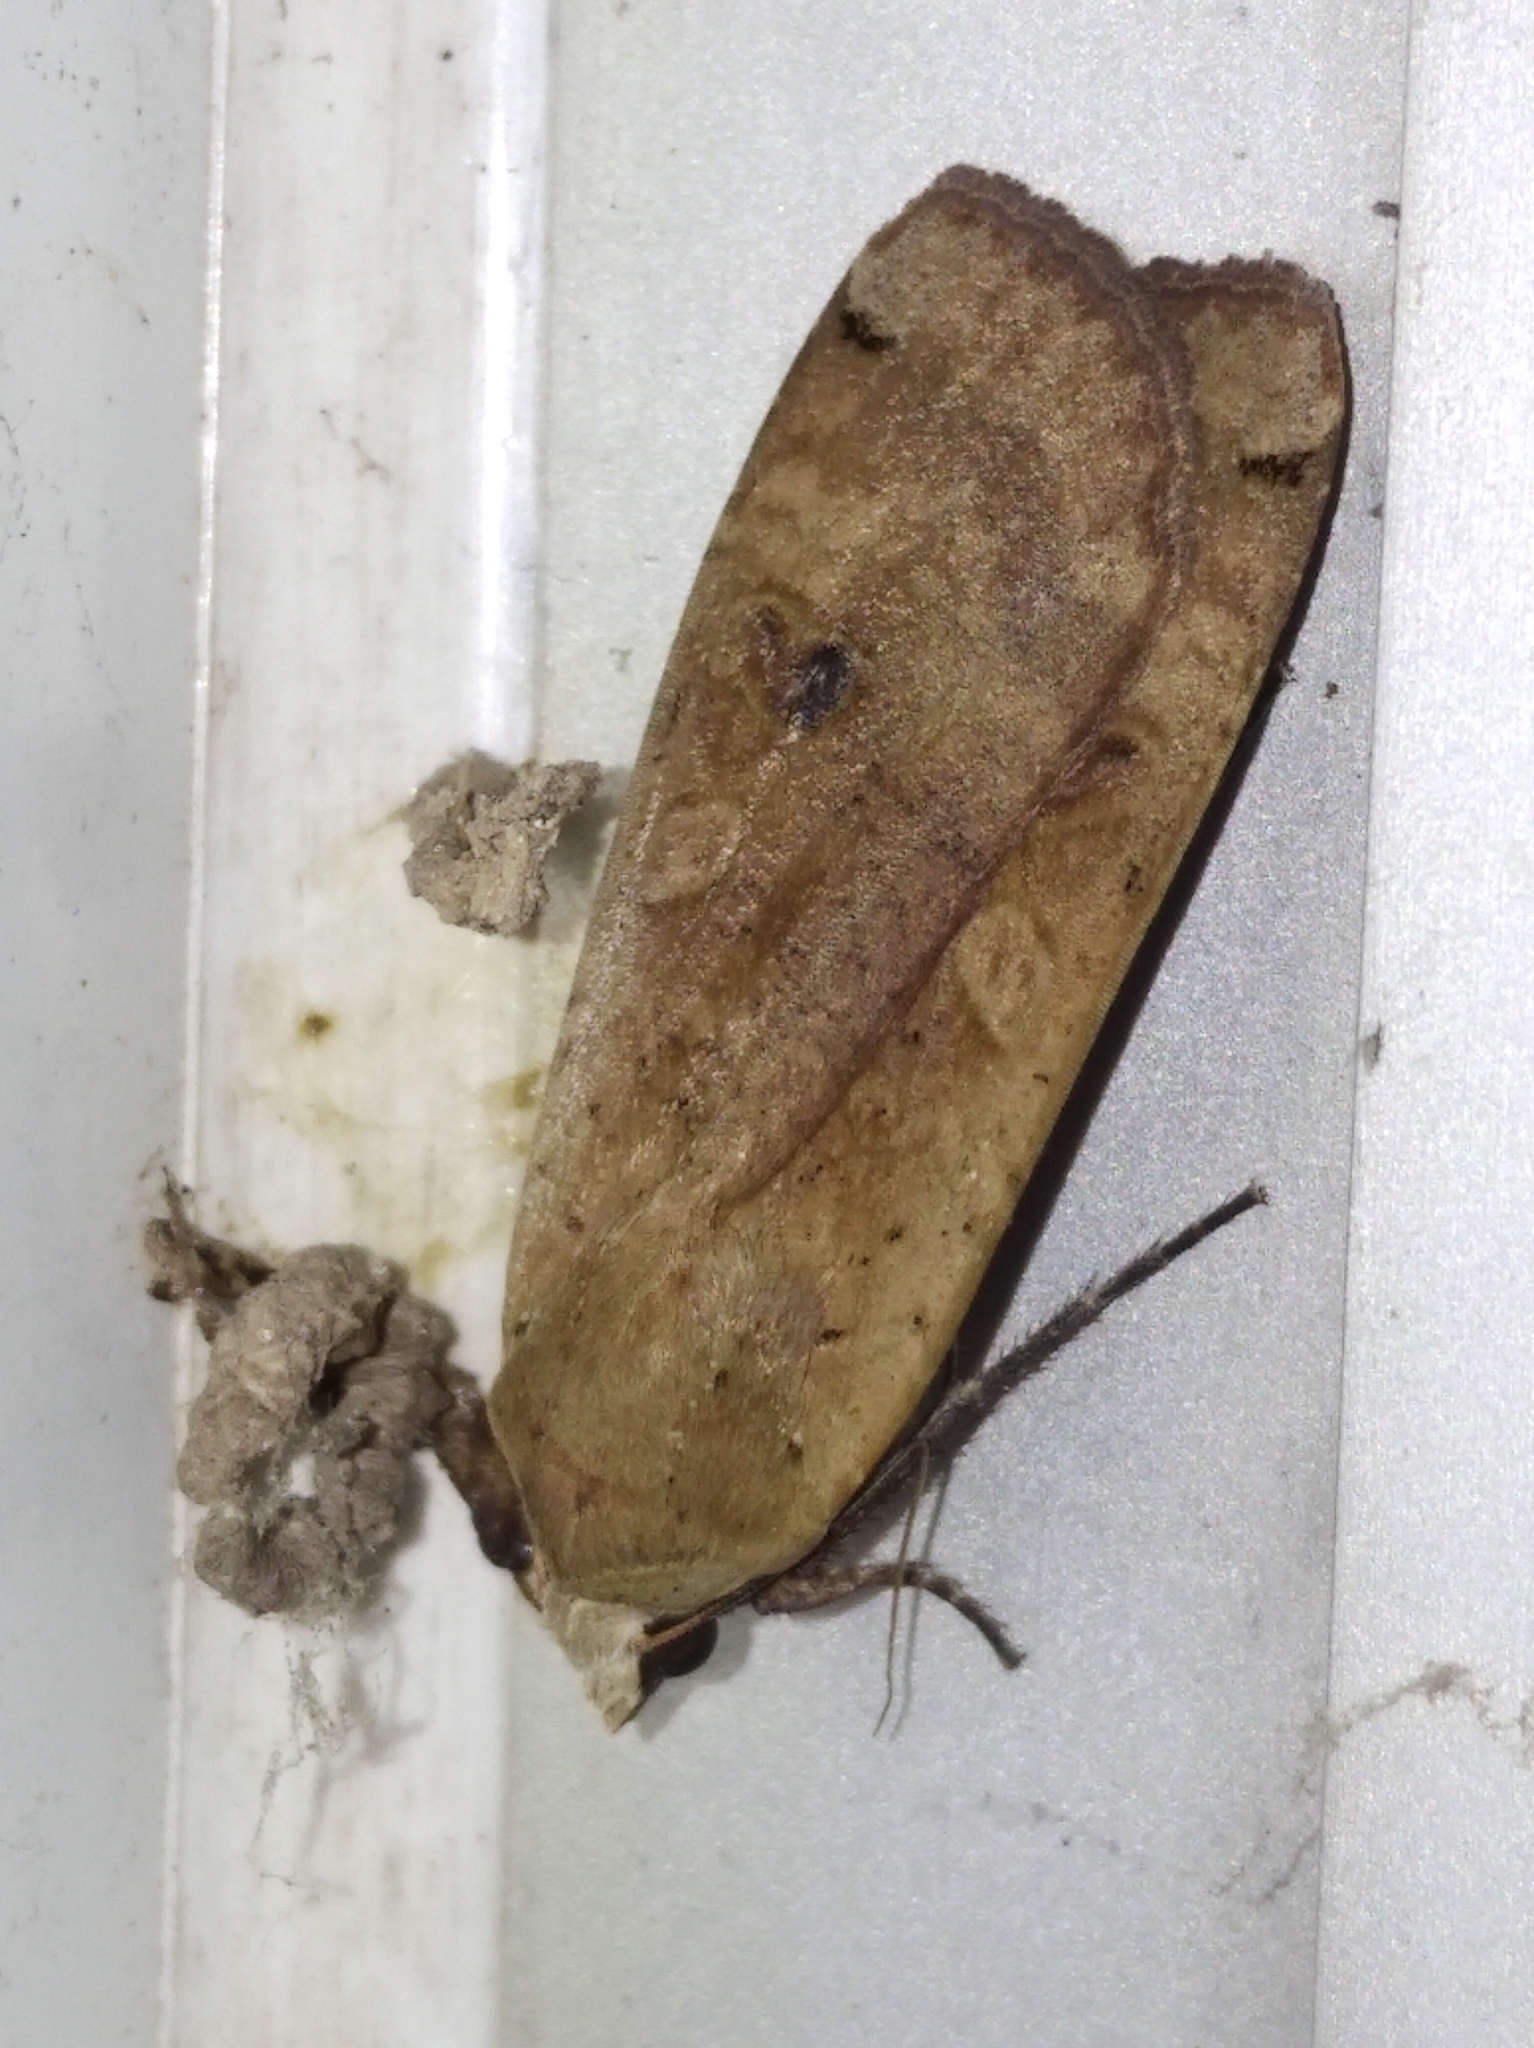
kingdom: Animalia
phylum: Arthropoda
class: Insecta
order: Lepidoptera
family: Noctuidae
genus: Noctua
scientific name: Noctua pronuba
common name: Large yellow underwing
